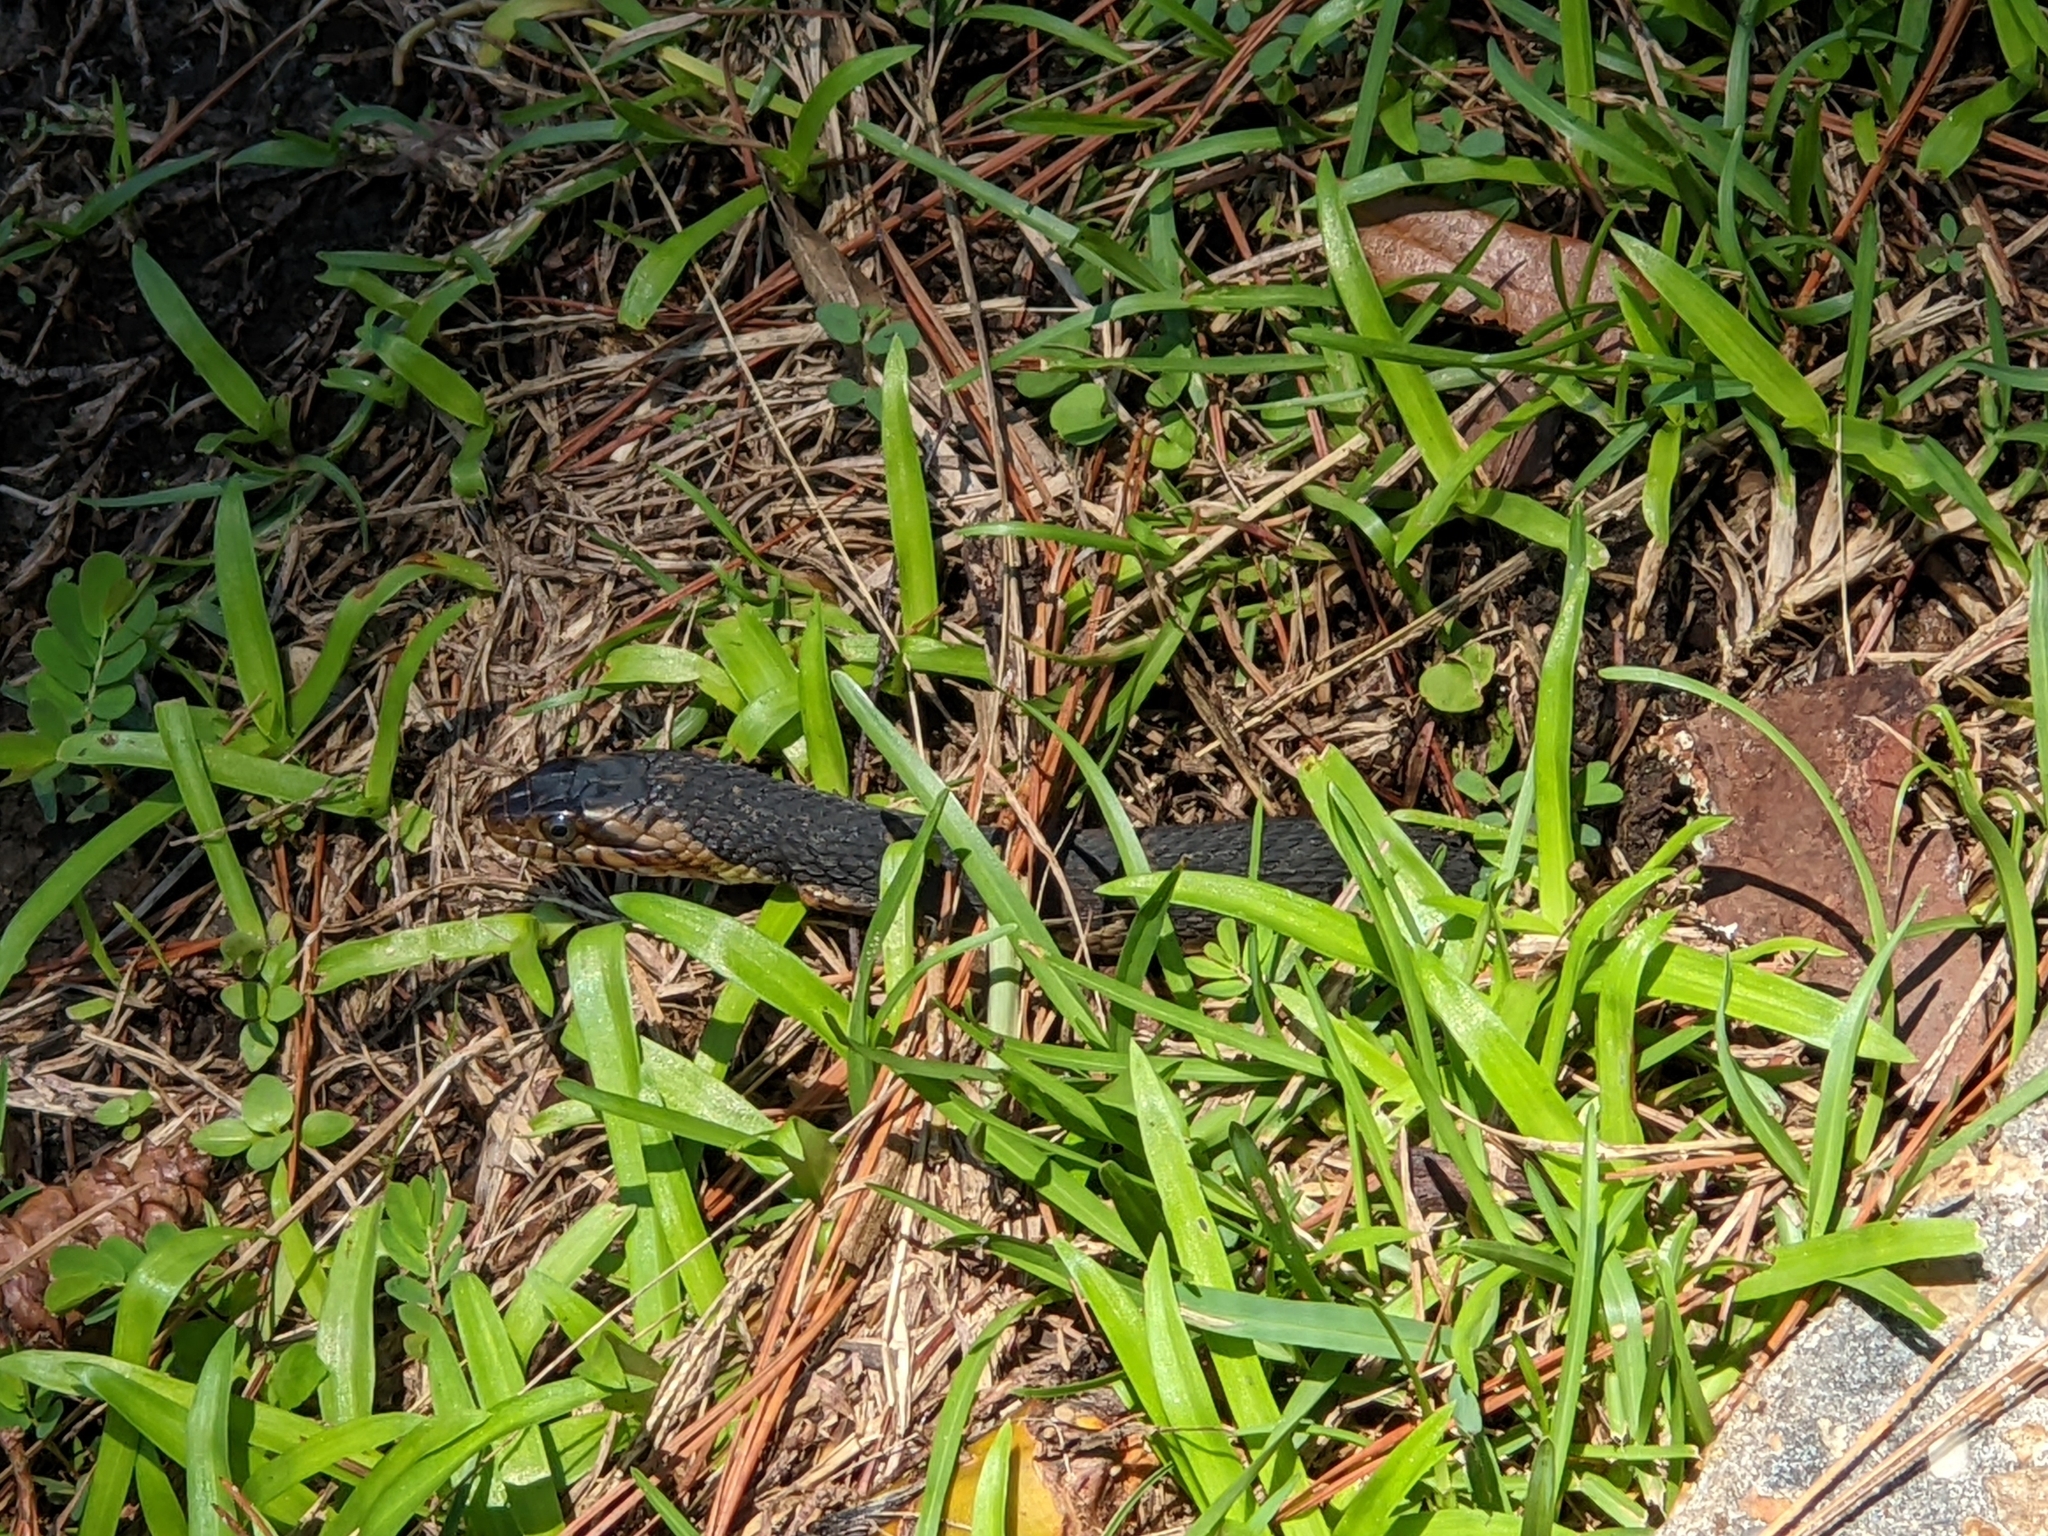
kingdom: Animalia
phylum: Chordata
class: Squamata
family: Colubridae
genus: Nerodia
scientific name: Nerodia fasciata
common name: Southern water snake
